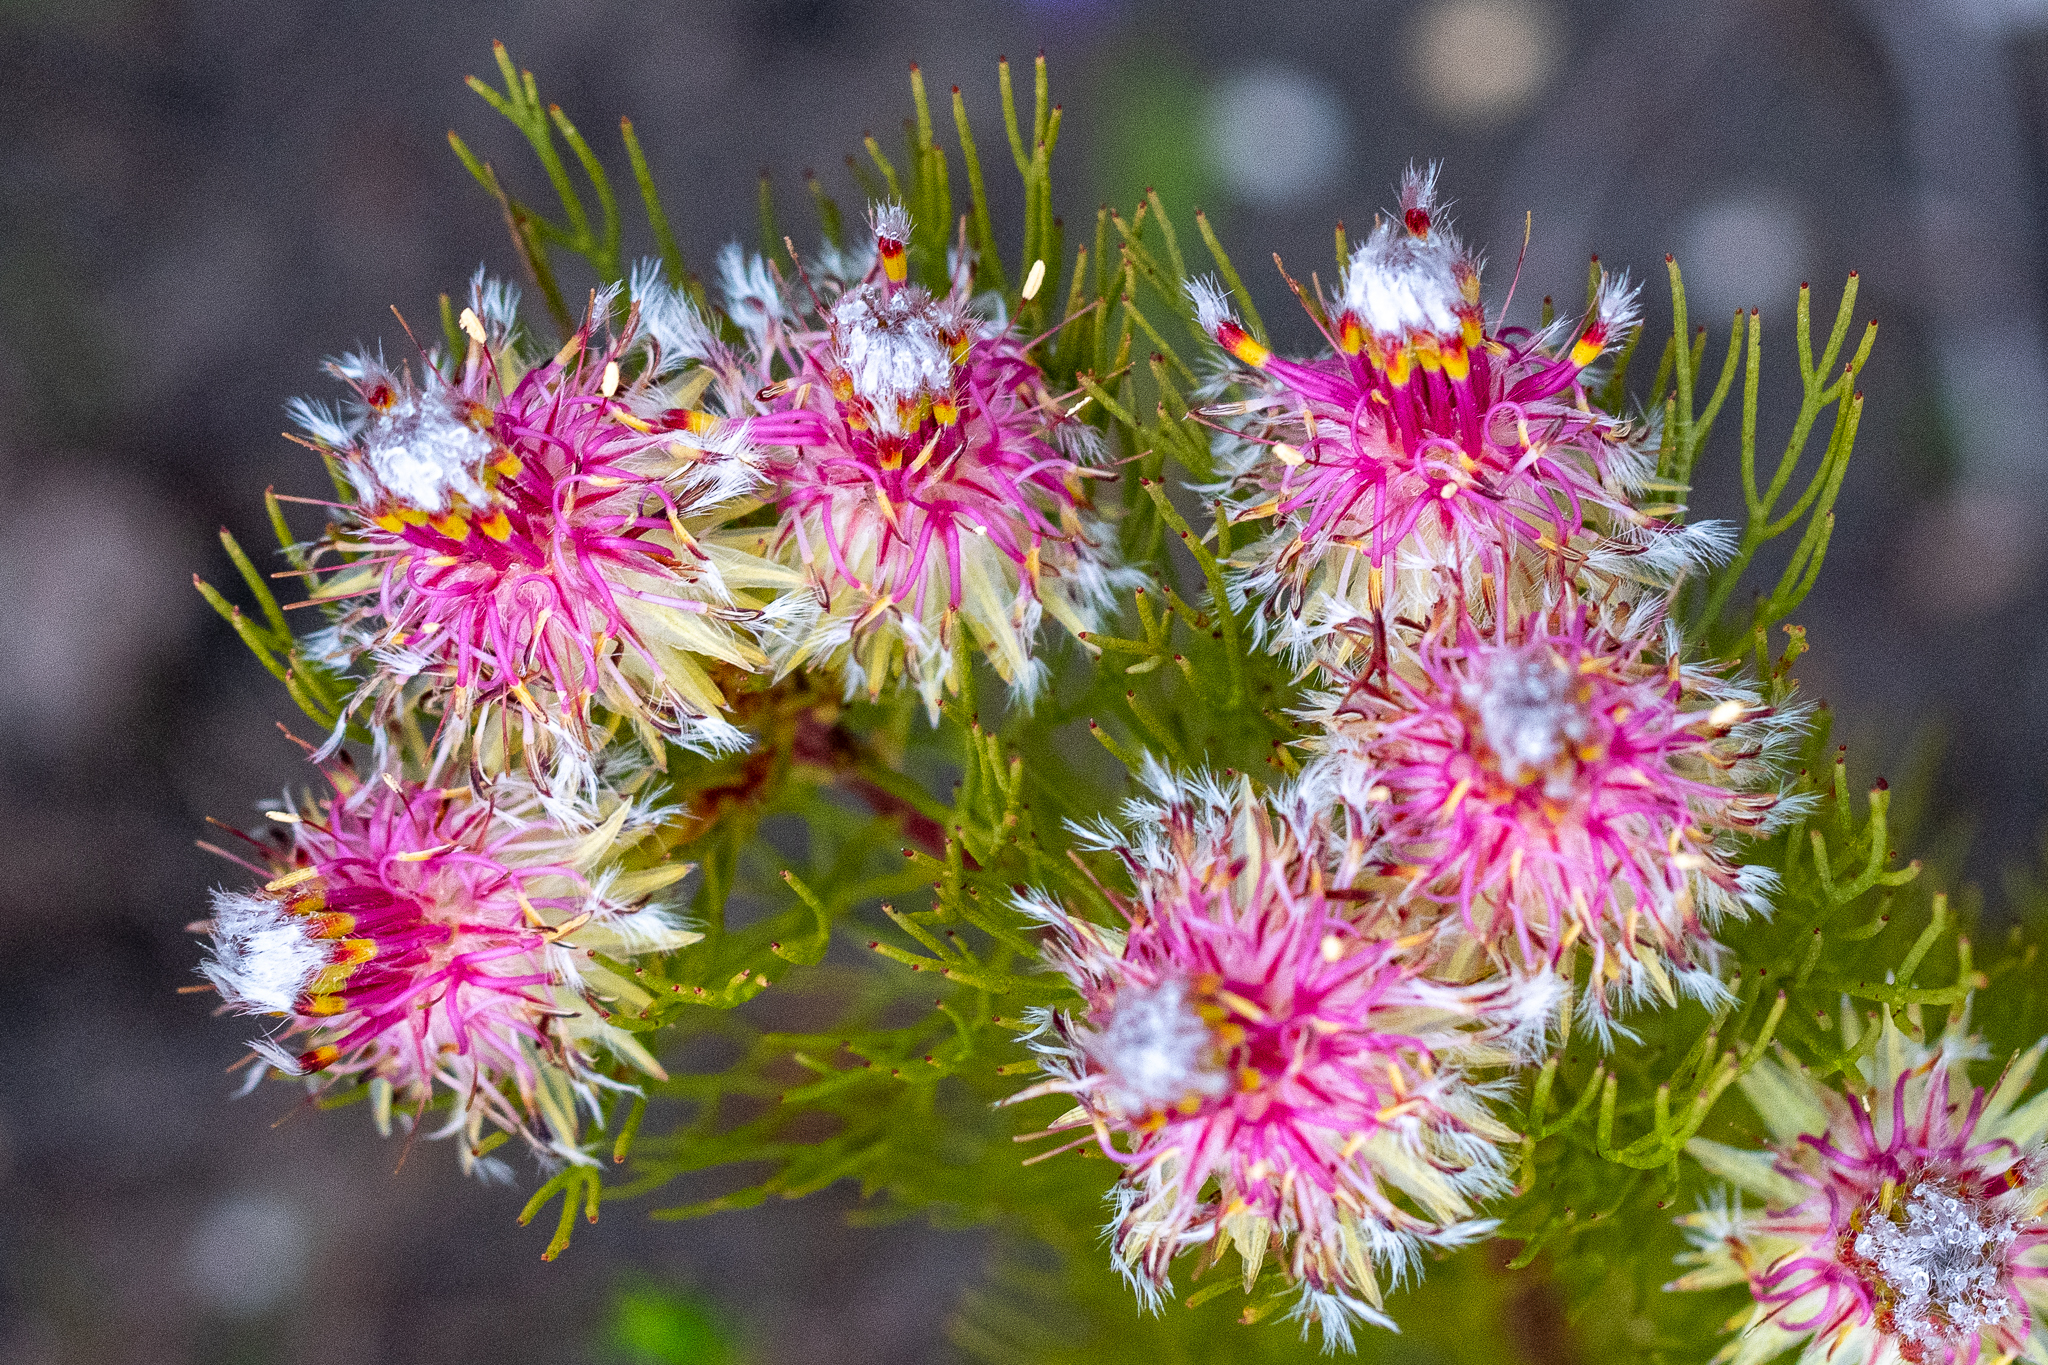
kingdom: Plantae
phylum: Tracheophyta
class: Magnoliopsida
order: Proteales
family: Proteaceae
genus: Serruria
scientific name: Serruria phylicoides
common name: Bearded spiderhead
